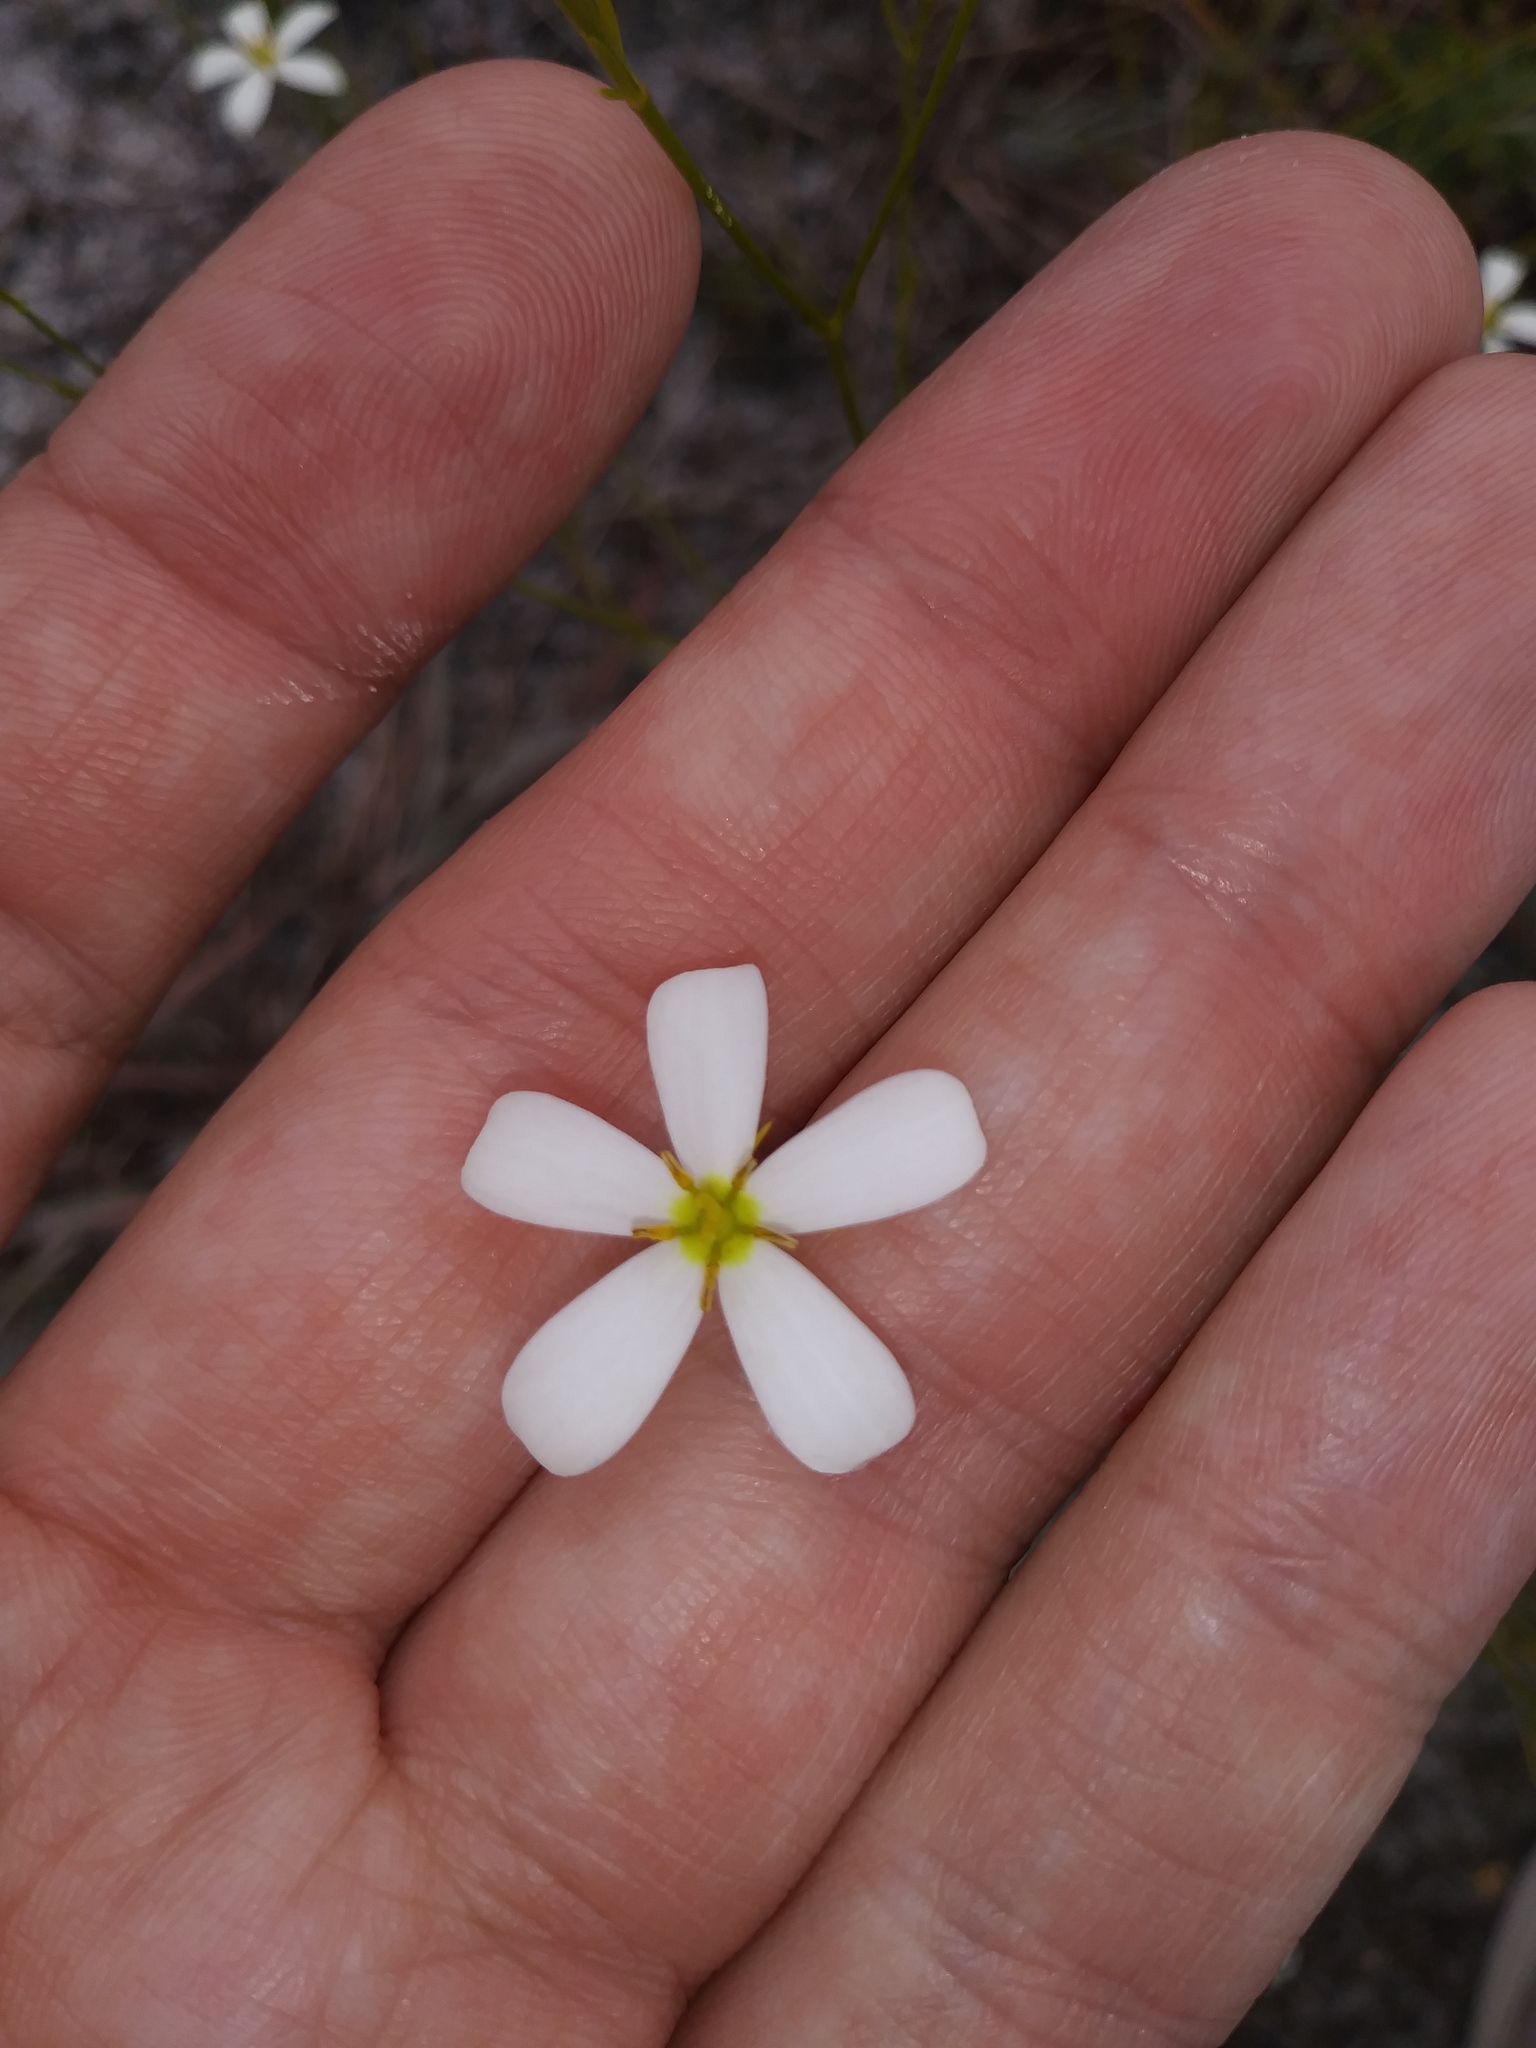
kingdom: Plantae
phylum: Tracheophyta
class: Magnoliopsida
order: Gentianales
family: Gentianaceae
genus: Sabatia
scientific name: Sabatia brevifolia
